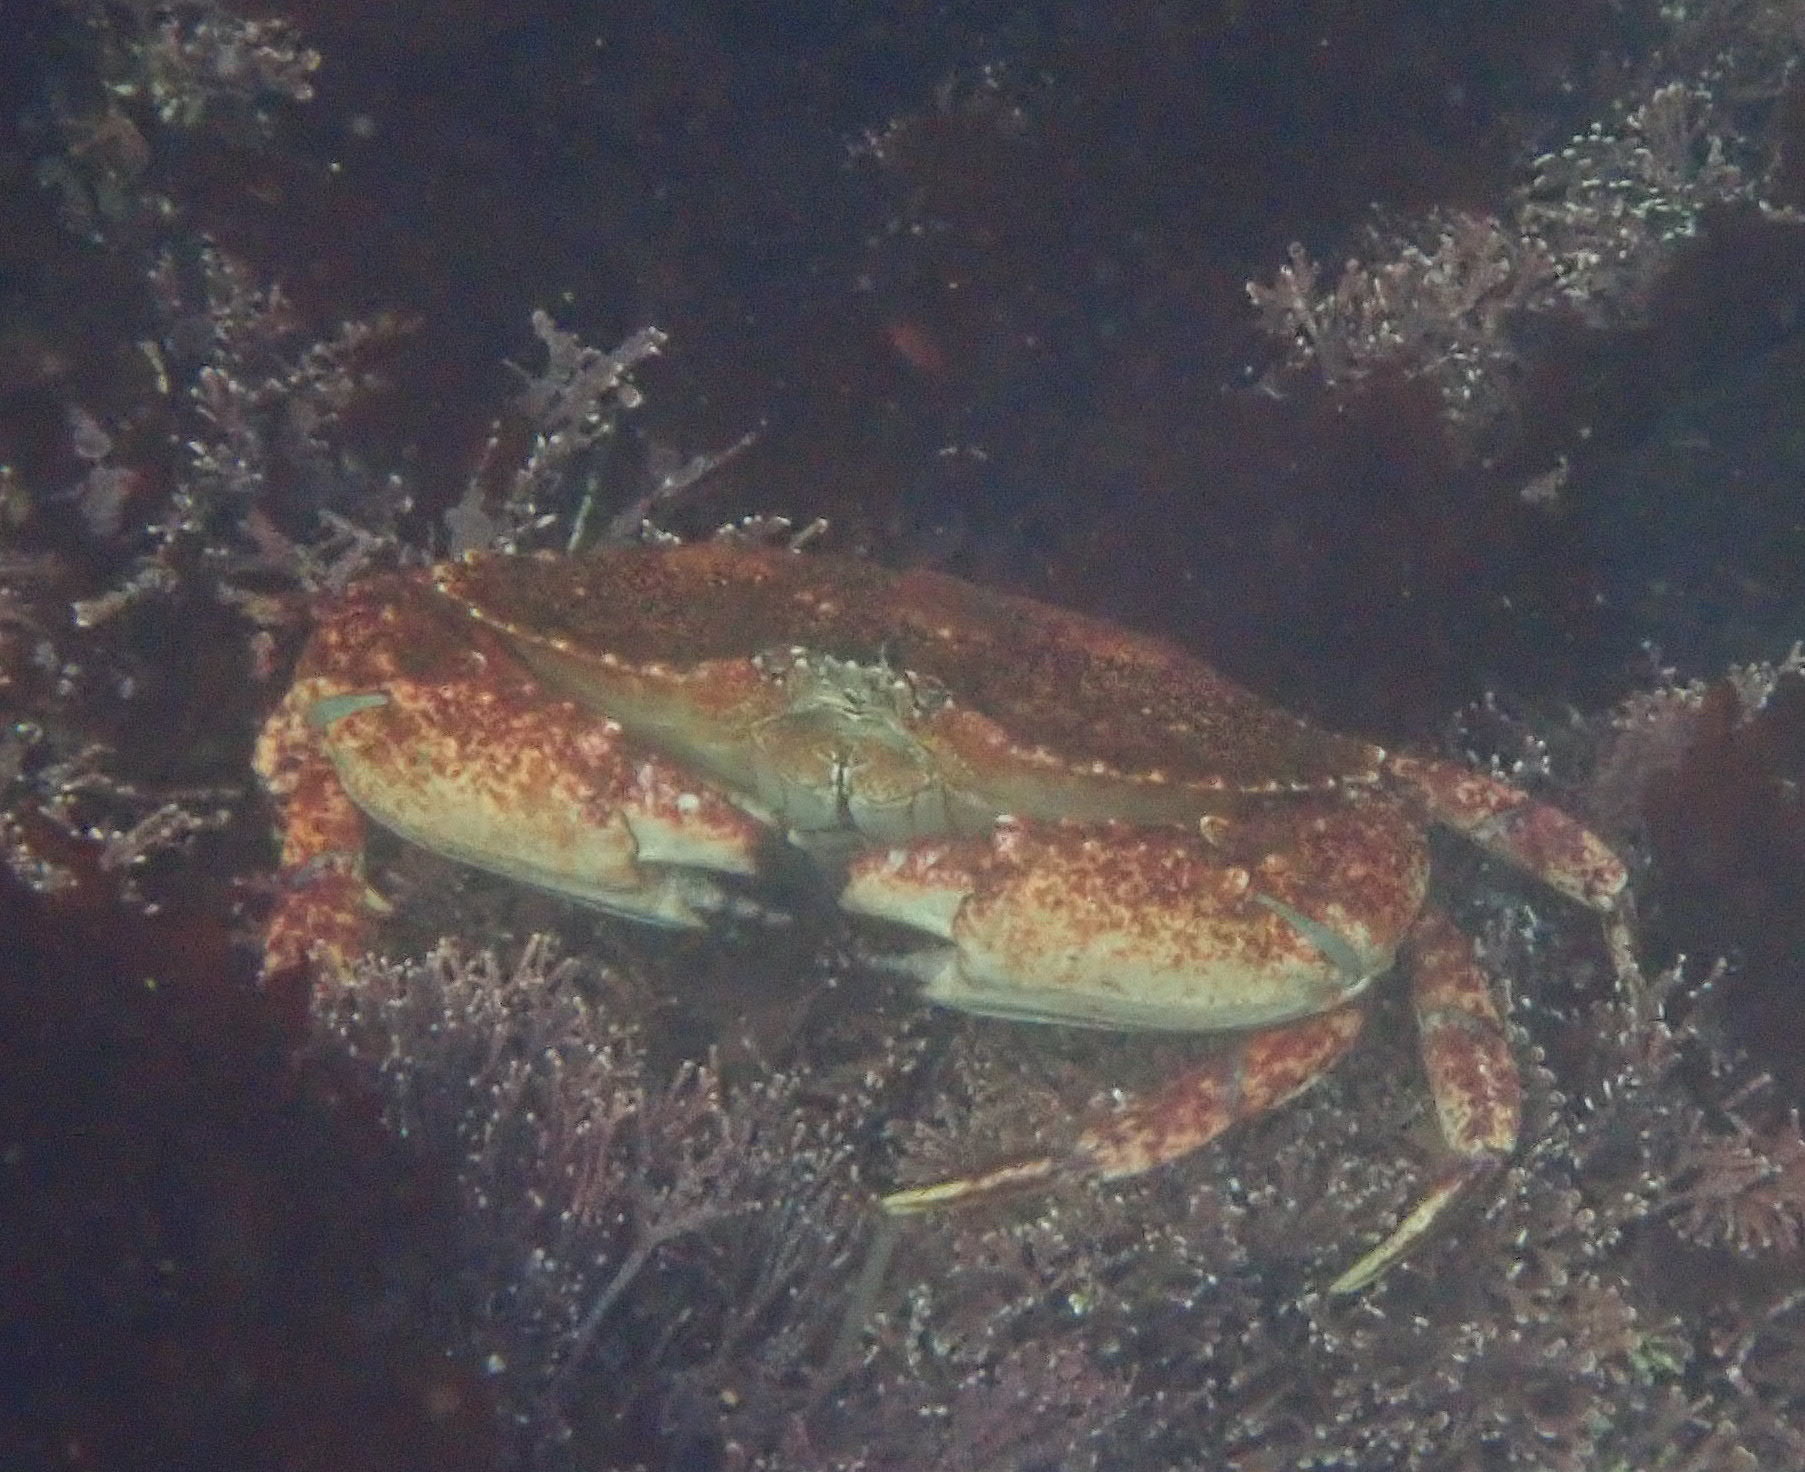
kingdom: Animalia
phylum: Arthropoda
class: Malacostraca
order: Decapoda
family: Cancridae
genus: Cancer
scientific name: Cancer productus
